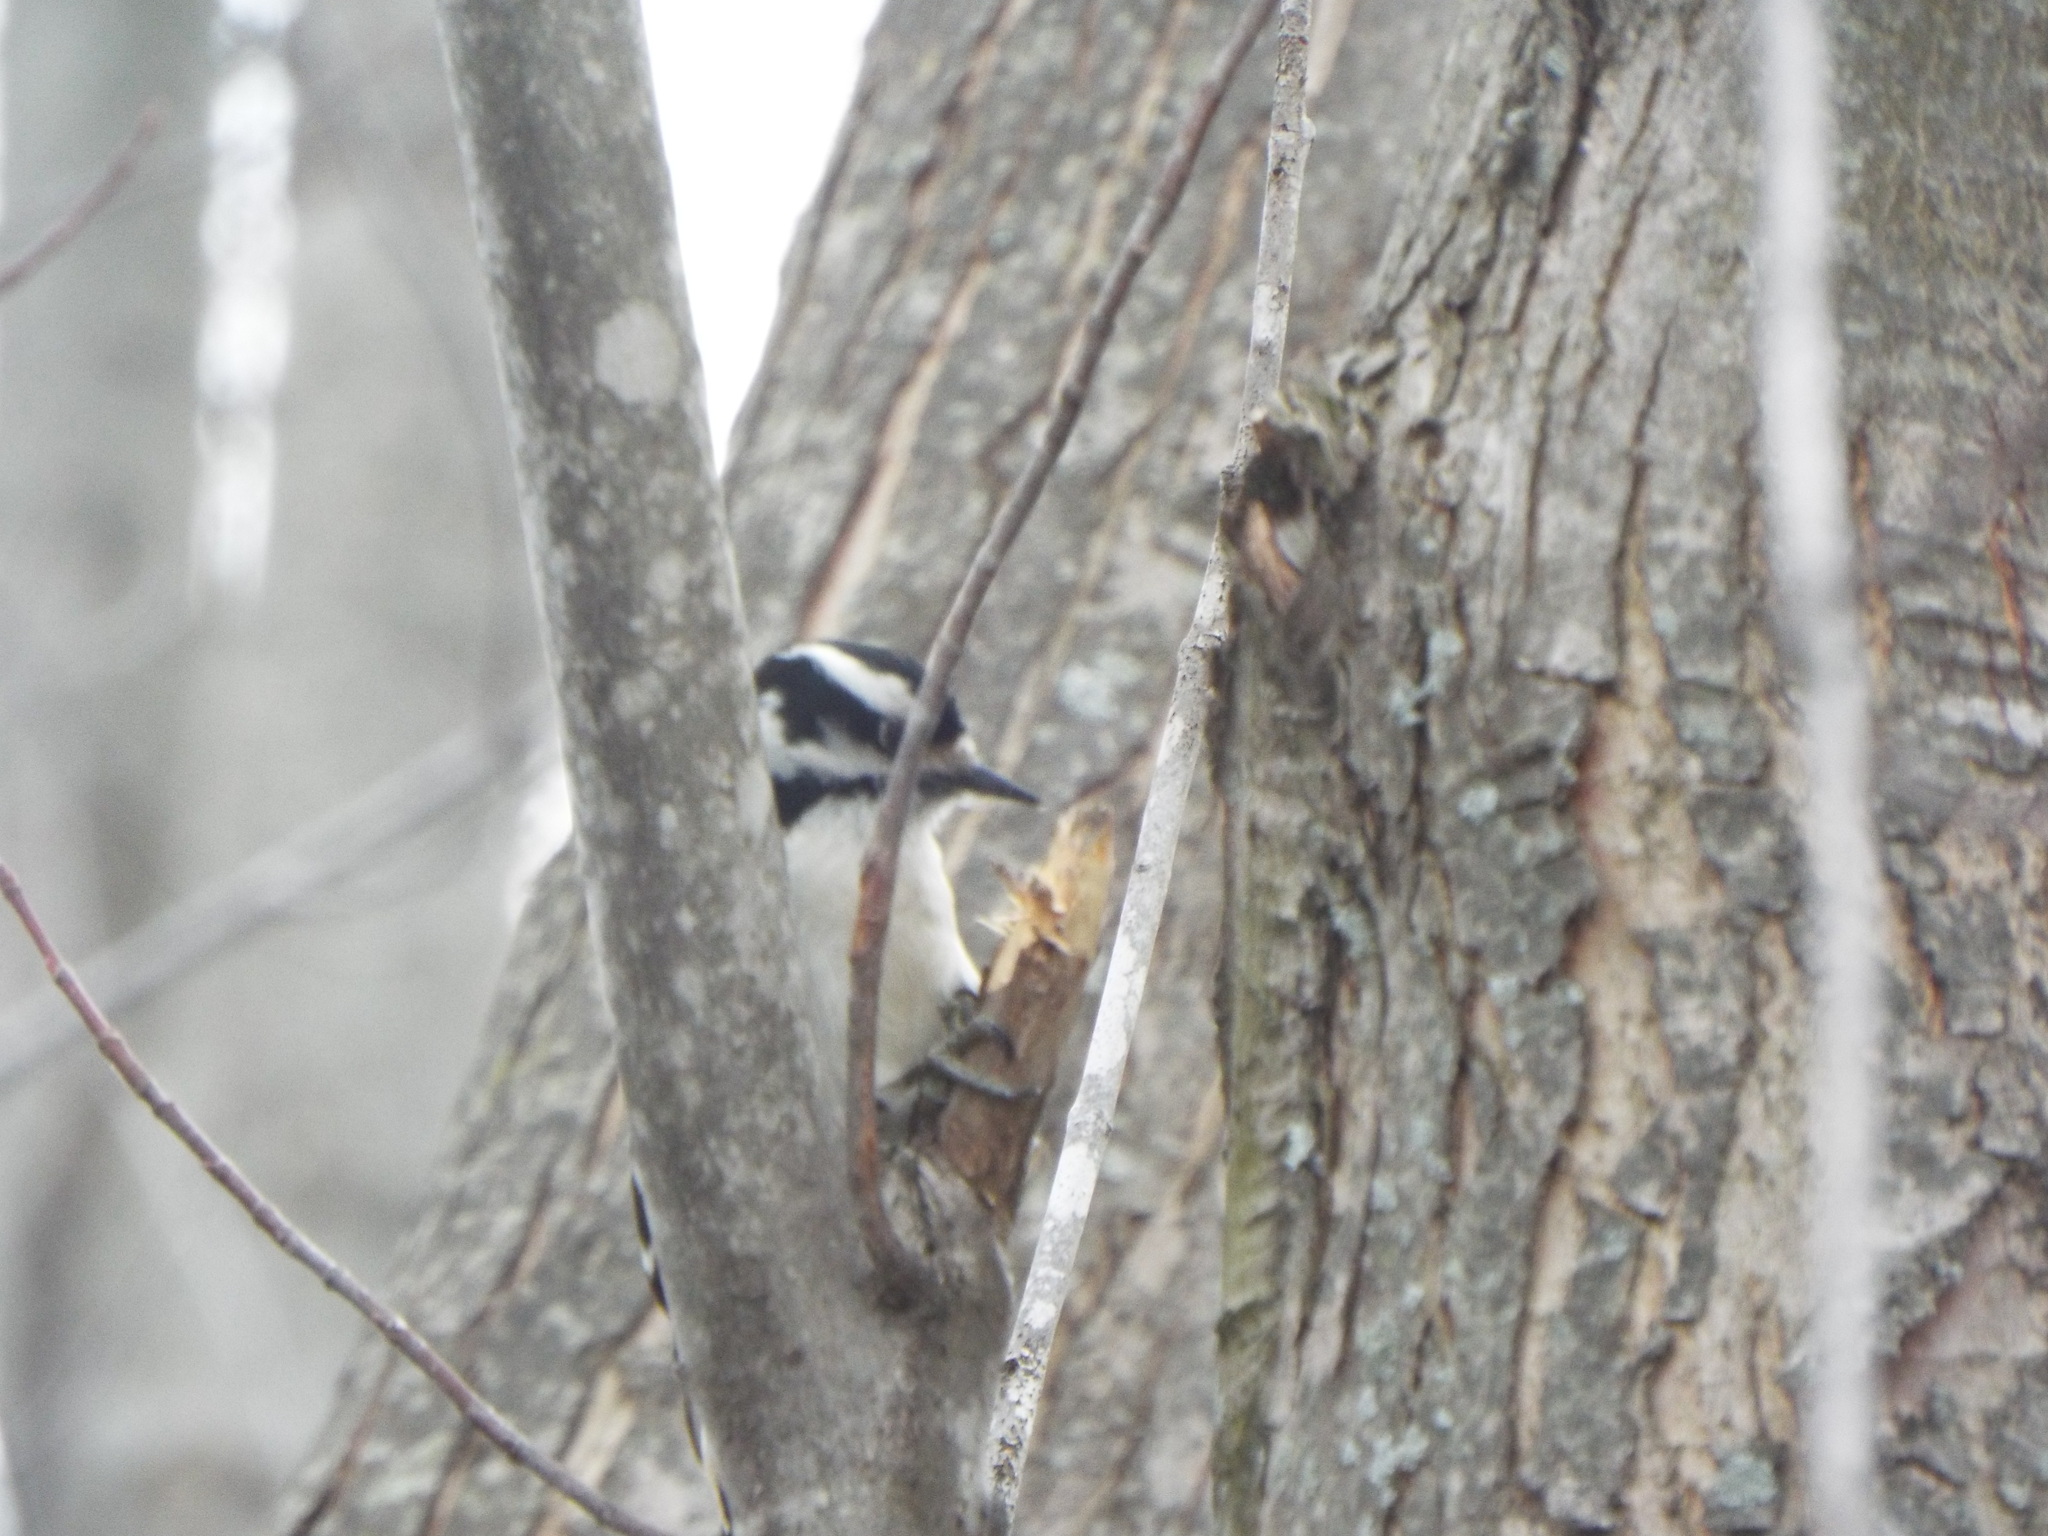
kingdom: Animalia
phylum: Chordata
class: Aves
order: Piciformes
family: Picidae
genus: Dryobates
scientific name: Dryobates pubescens
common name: Downy woodpecker
